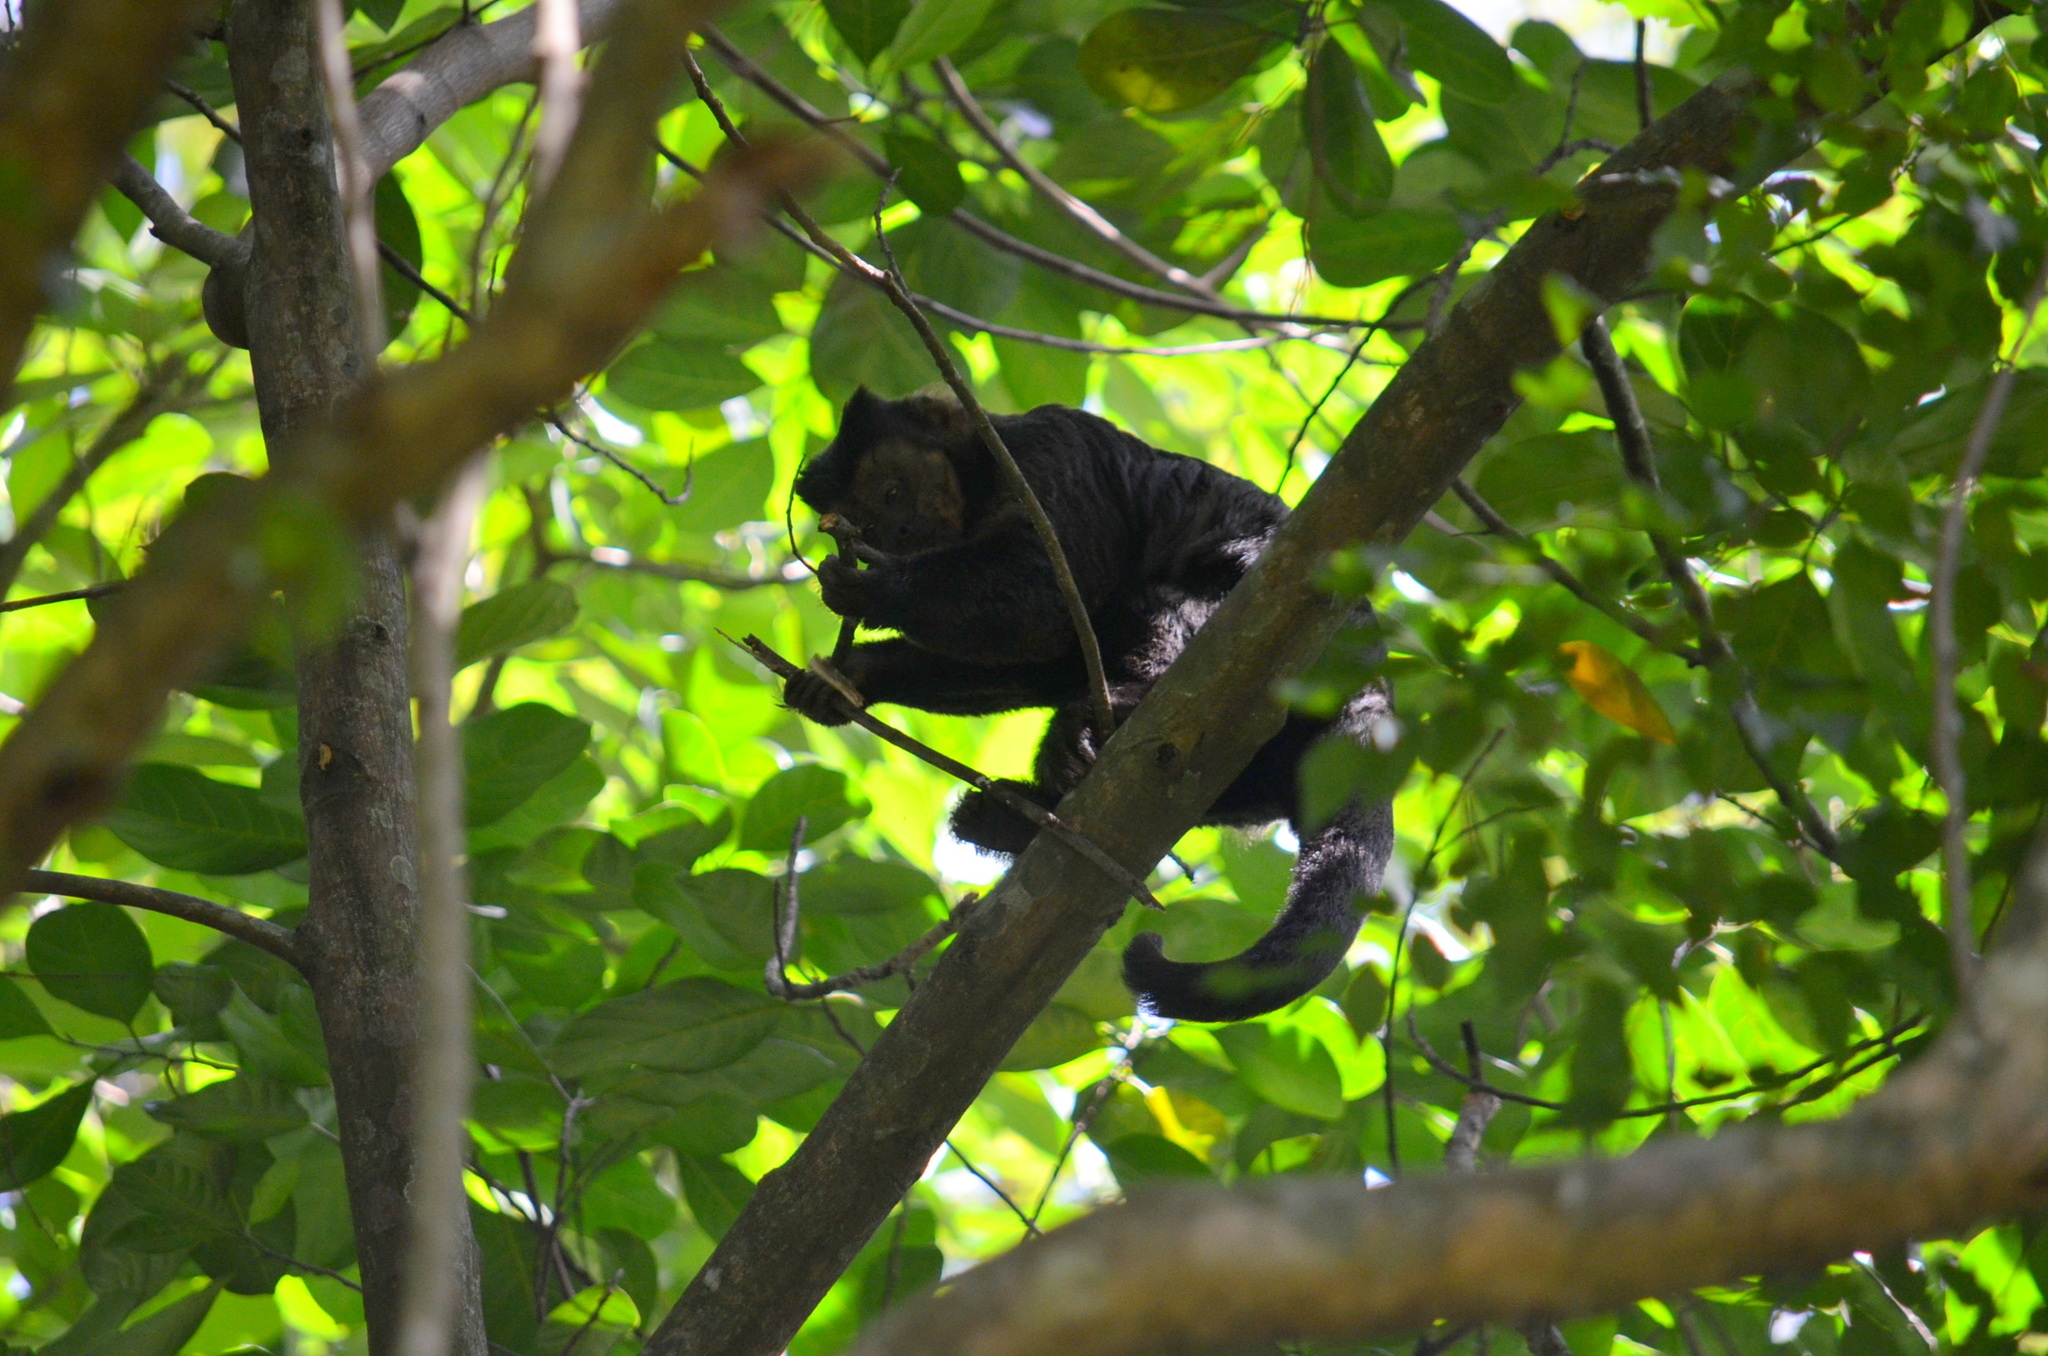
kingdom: Animalia
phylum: Chordata
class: Mammalia
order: Primates
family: Cebidae
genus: Sapajus
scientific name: Sapajus nigritus
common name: Black capuchin
